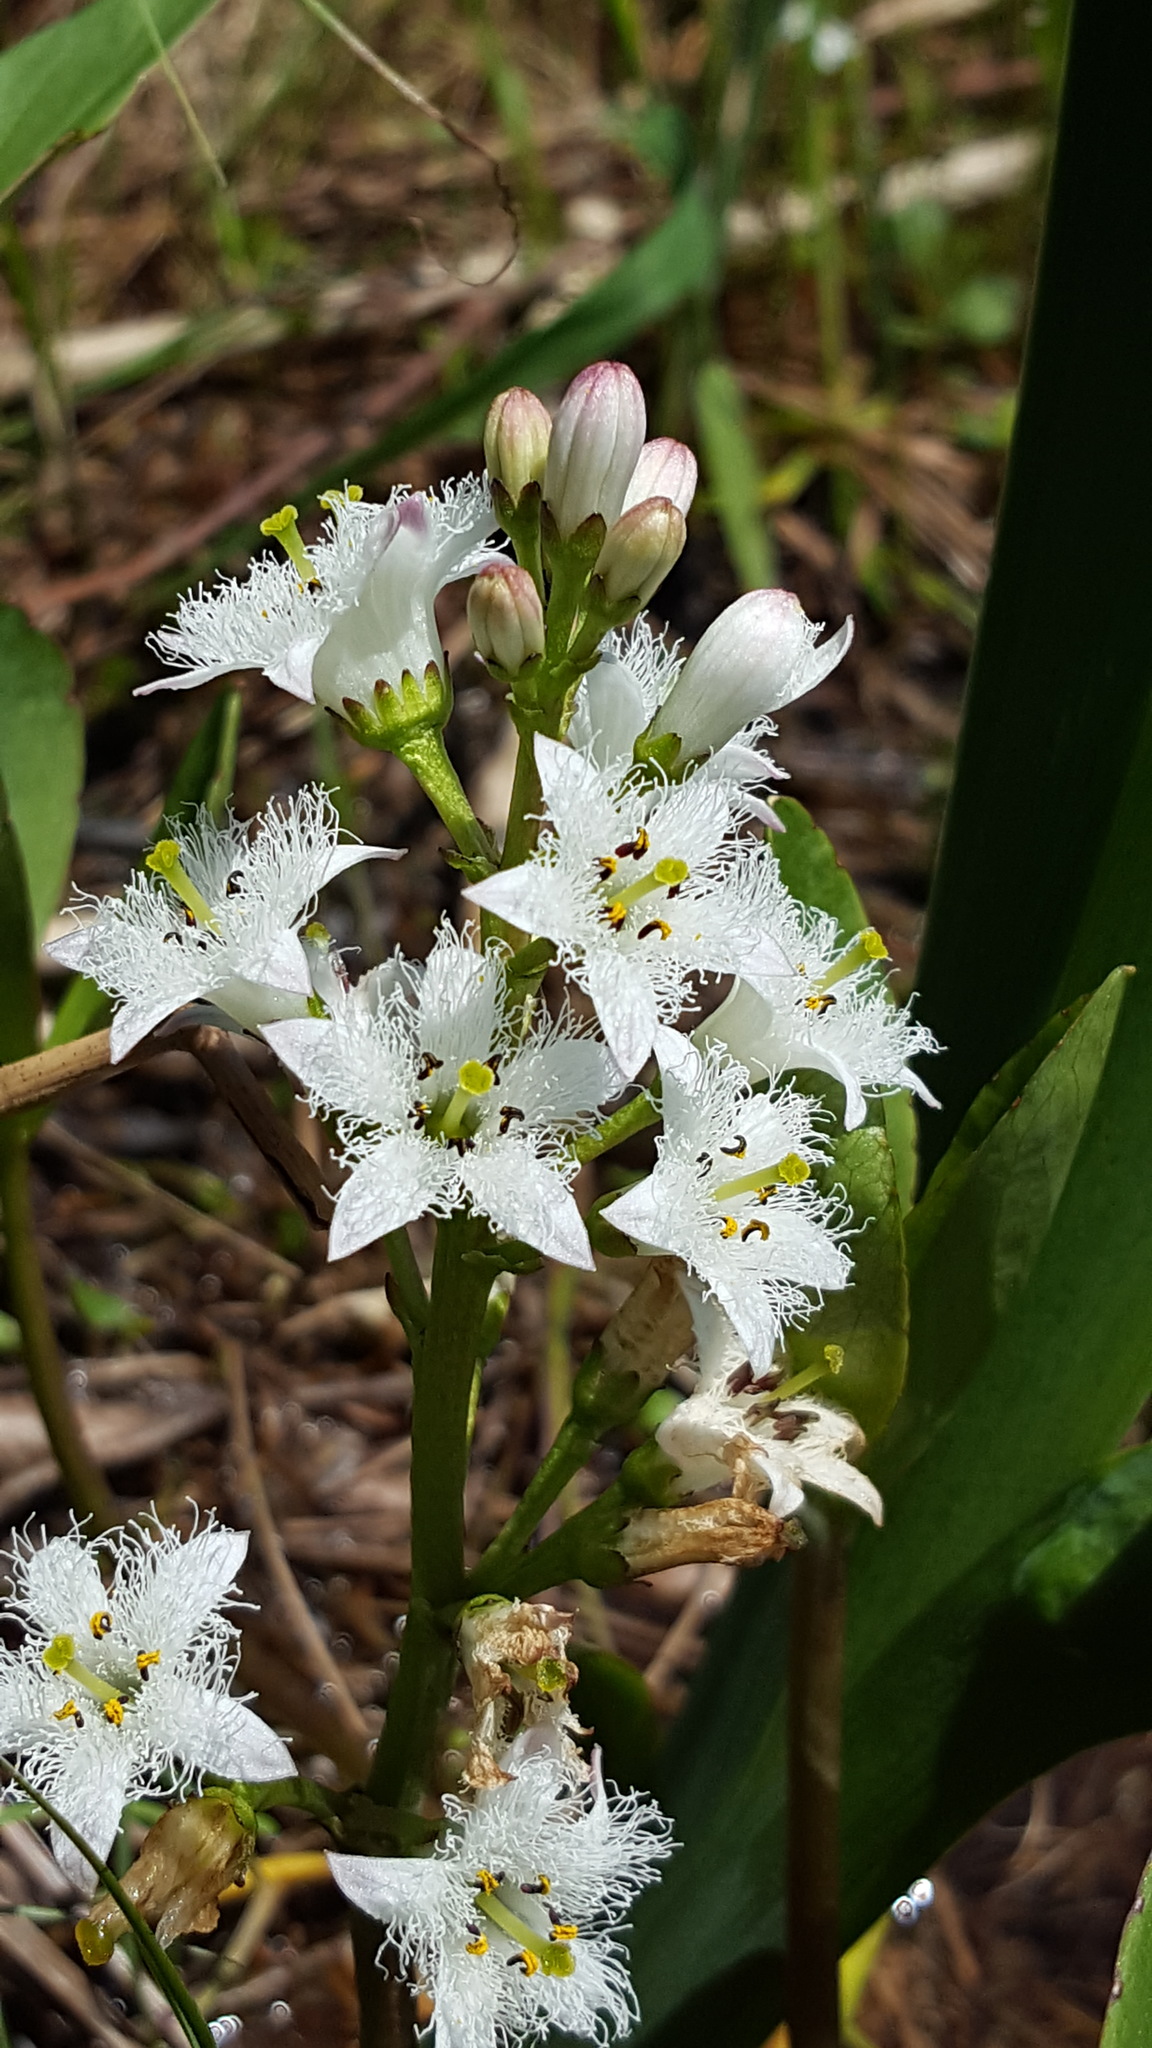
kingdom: Plantae
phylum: Tracheophyta
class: Magnoliopsida
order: Asterales
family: Menyanthaceae
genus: Menyanthes
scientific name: Menyanthes trifoliata
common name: Bogbean
